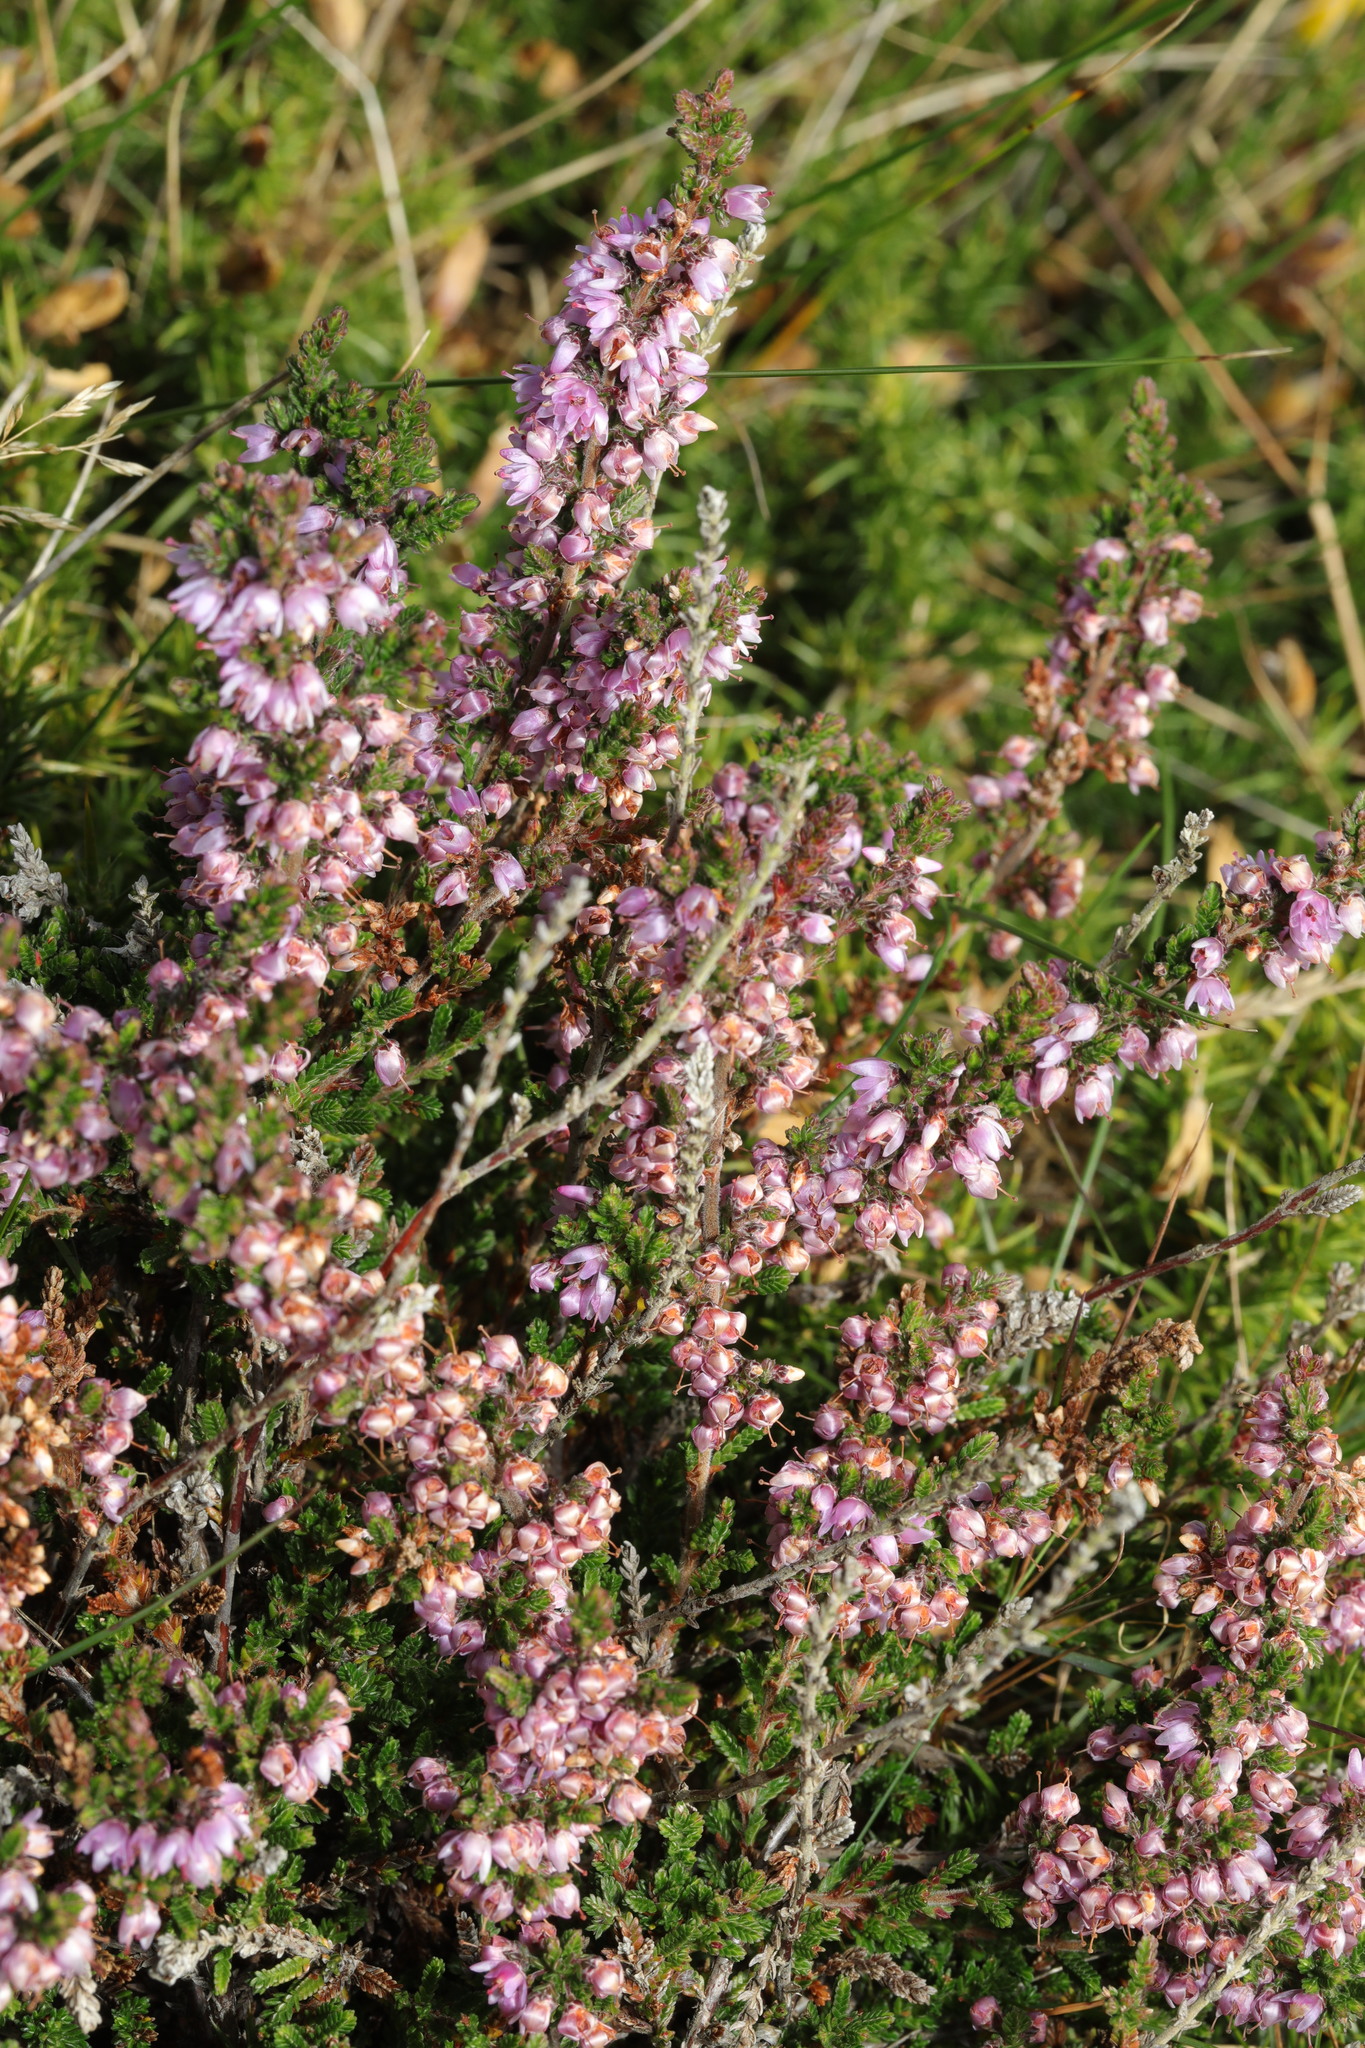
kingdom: Plantae
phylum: Tracheophyta
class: Magnoliopsida
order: Ericales
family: Ericaceae
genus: Calluna
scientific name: Calluna vulgaris
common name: Heather
